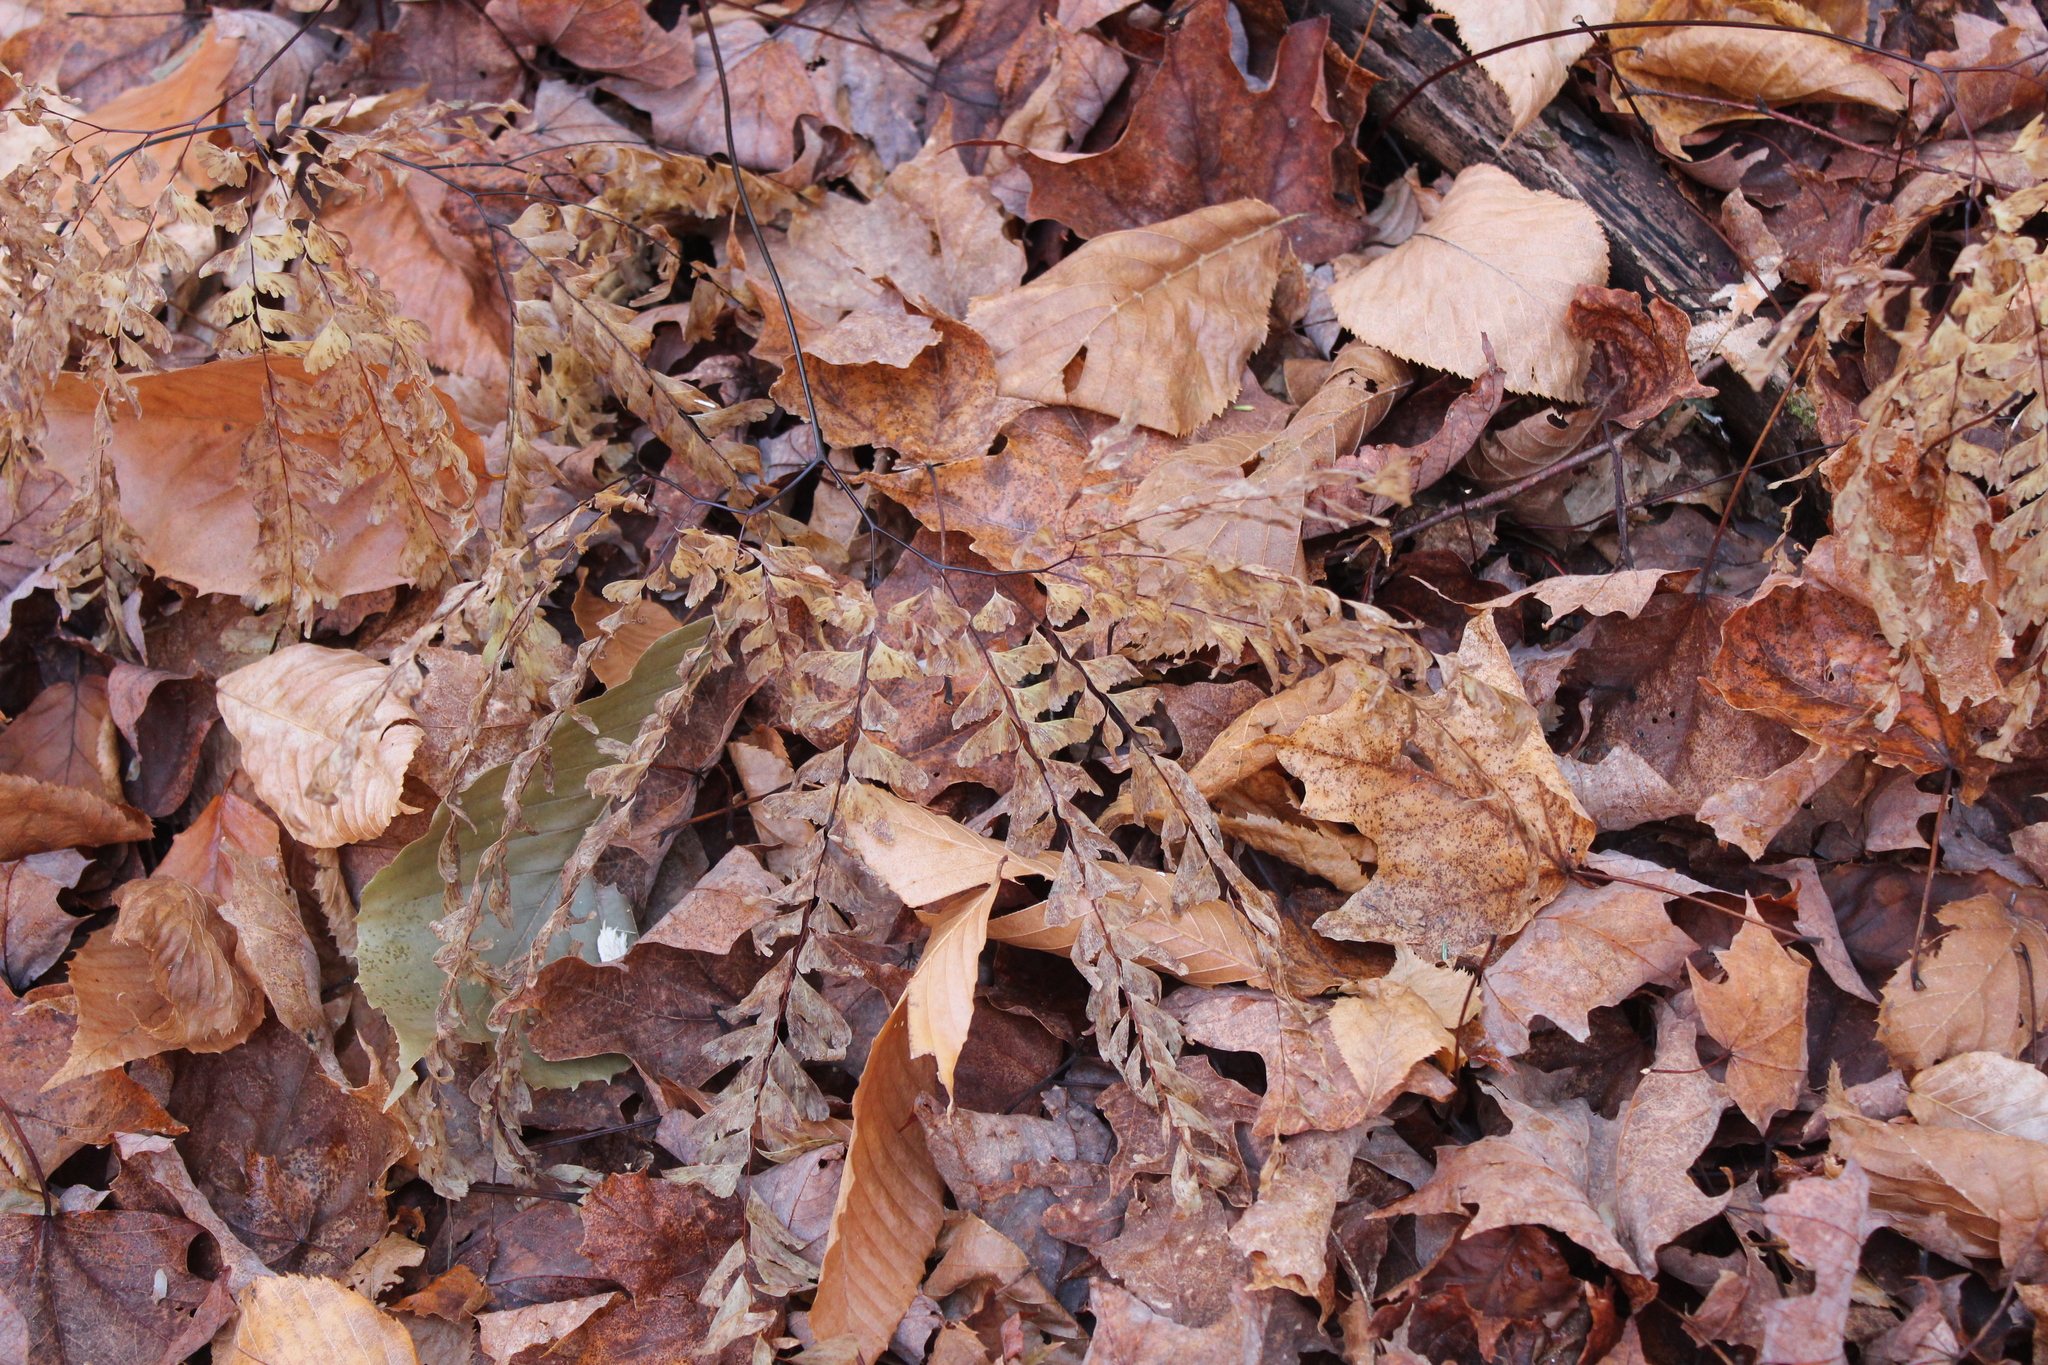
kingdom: Plantae
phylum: Tracheophyta
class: Polypodiopsida
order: Polypodiales
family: Pteridaceae
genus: Adiantum
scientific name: Adiantum pedatum
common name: Five-finger fern
